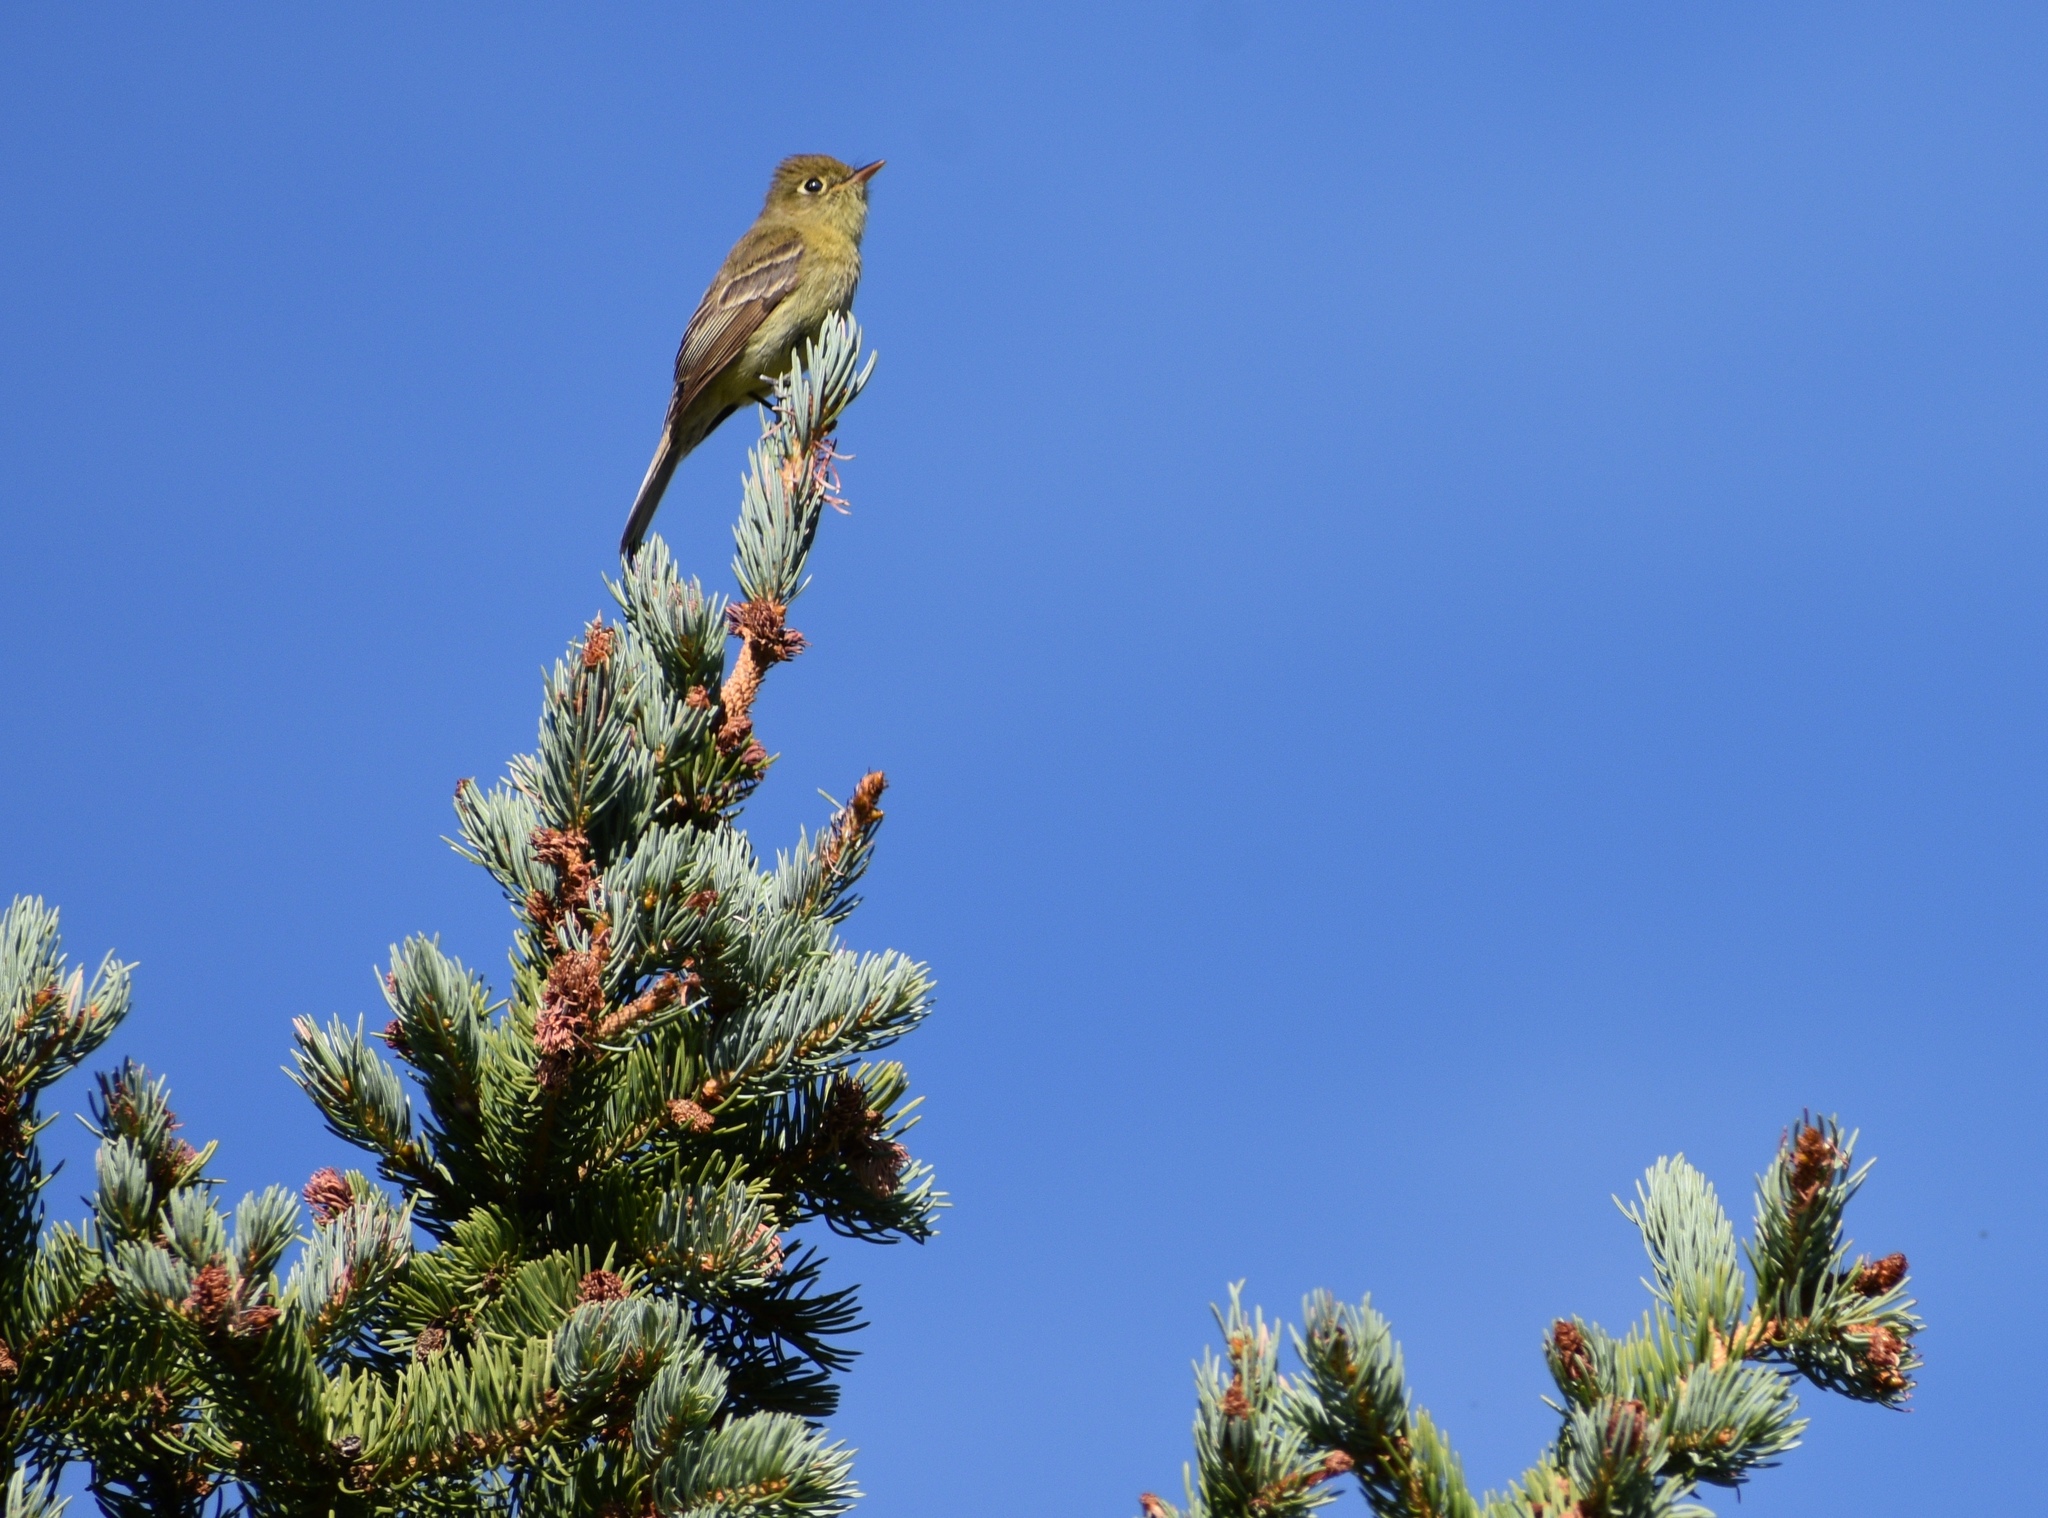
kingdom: Animalia
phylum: Chordata
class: Aves
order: Passeriformes
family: Tyrannidae
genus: Empidonax
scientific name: Empidonax difficilis
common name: Pacific-slope flycatcher
